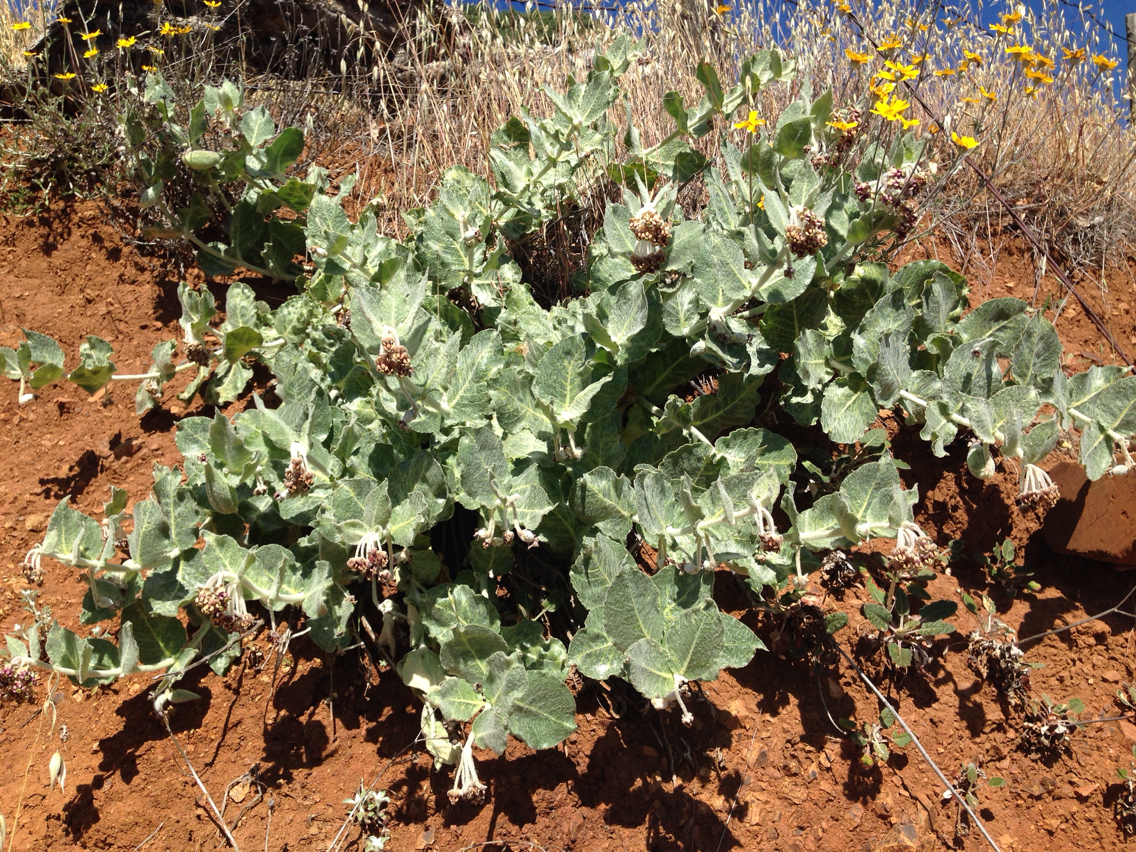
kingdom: Plantae
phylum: Tracheophyta
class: Magnoliopsida
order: Gentianales
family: Apocynaceae
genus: Asclepias
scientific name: Asclepias californica
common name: California milkweed
